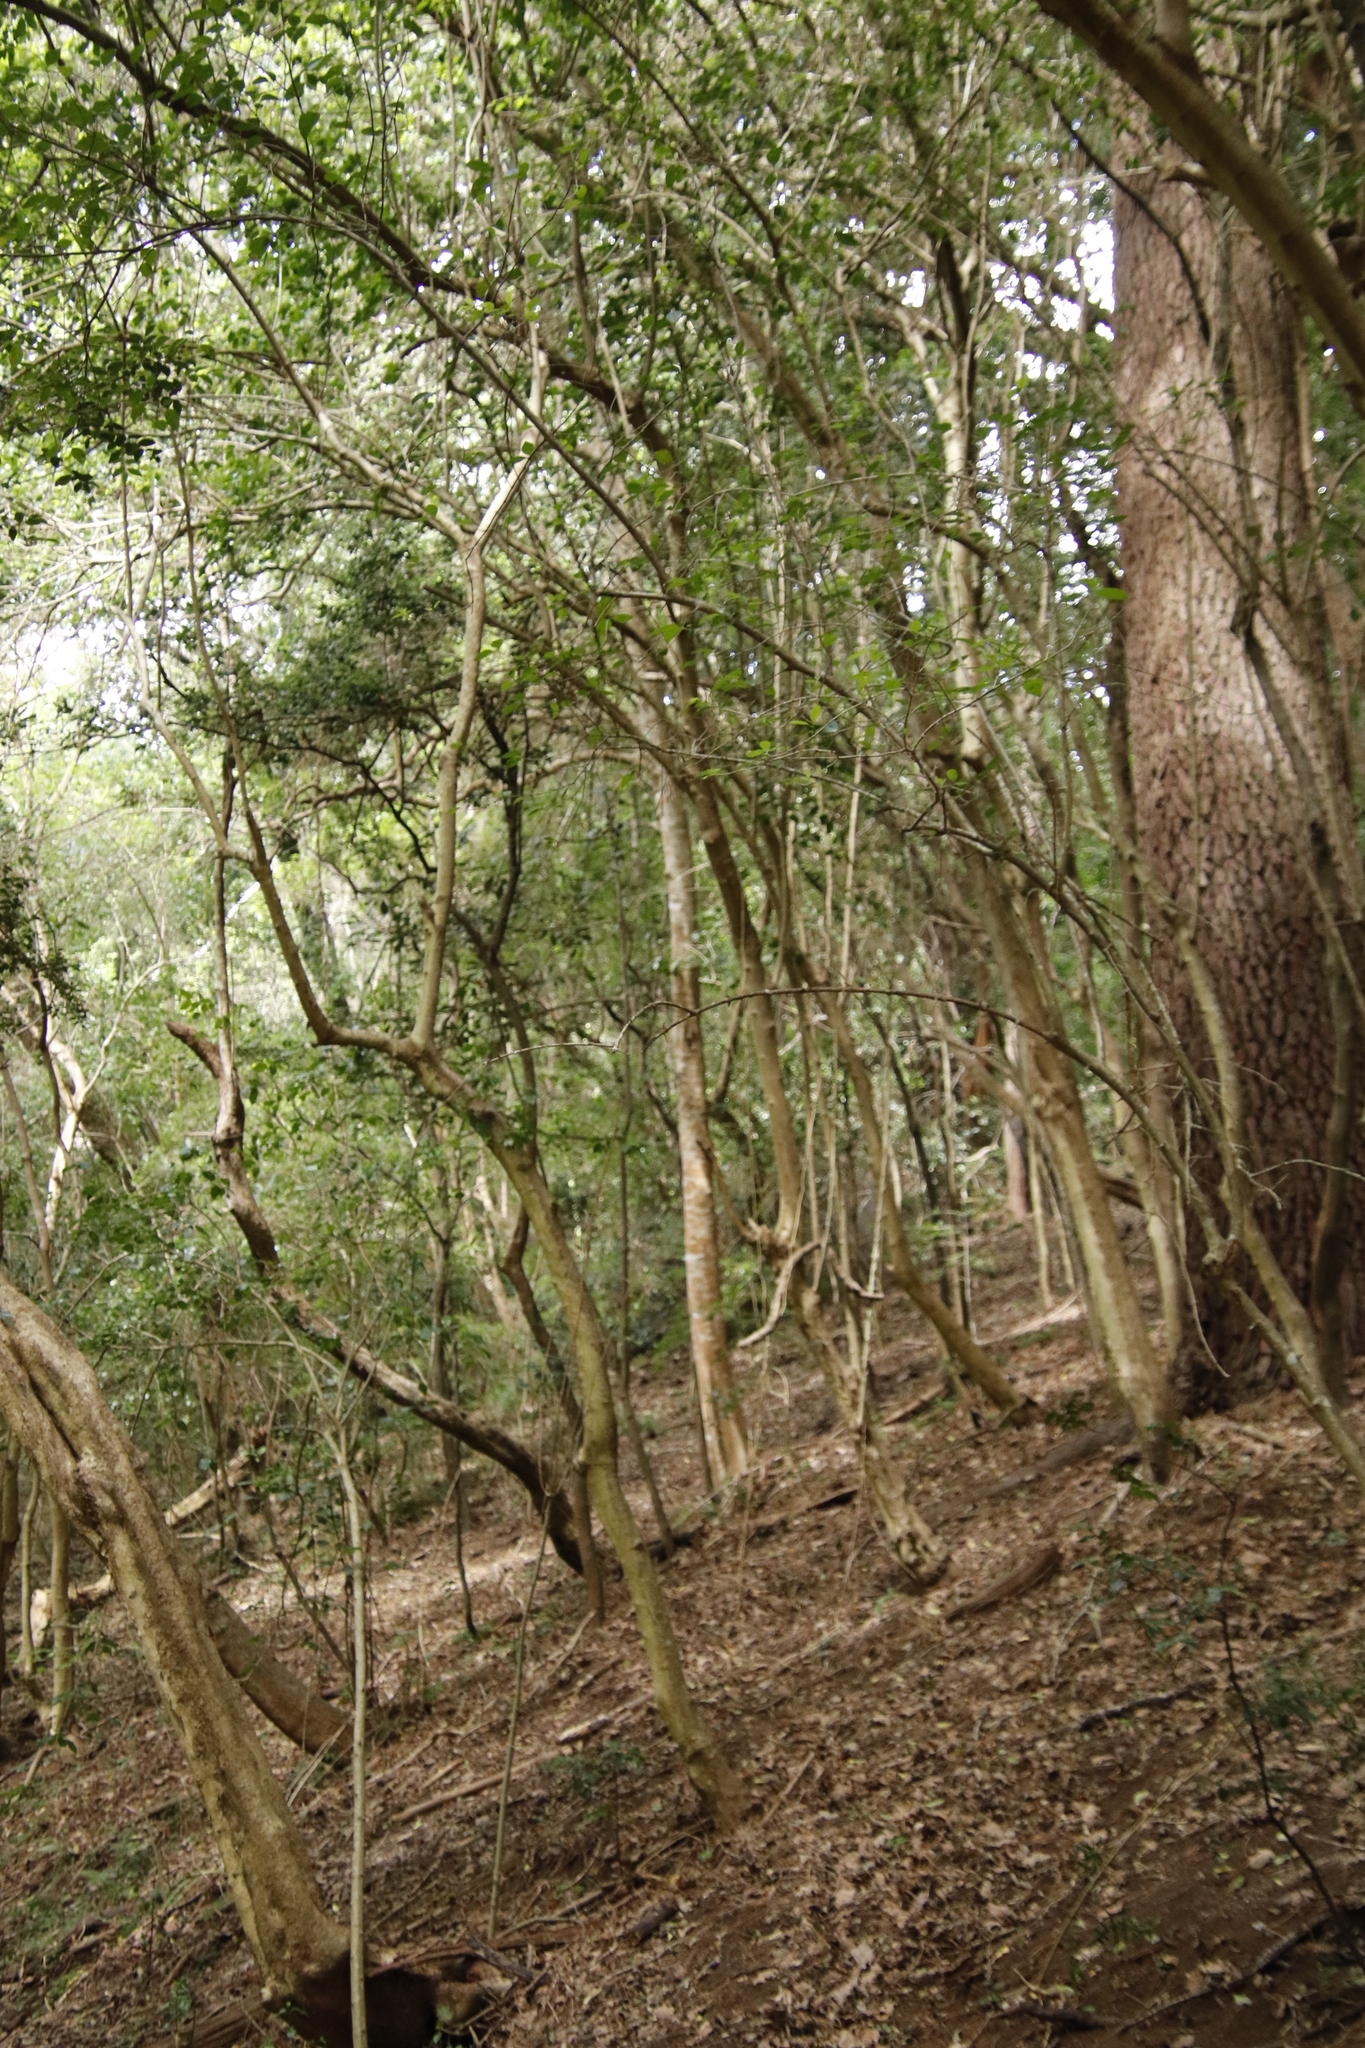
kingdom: Plantae
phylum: Tracheophyta
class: Magnoliopsida
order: Gentianales
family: Rubiaceae
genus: Afrocanthium
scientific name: Afrocanthium mundianum
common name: Rock-alder
